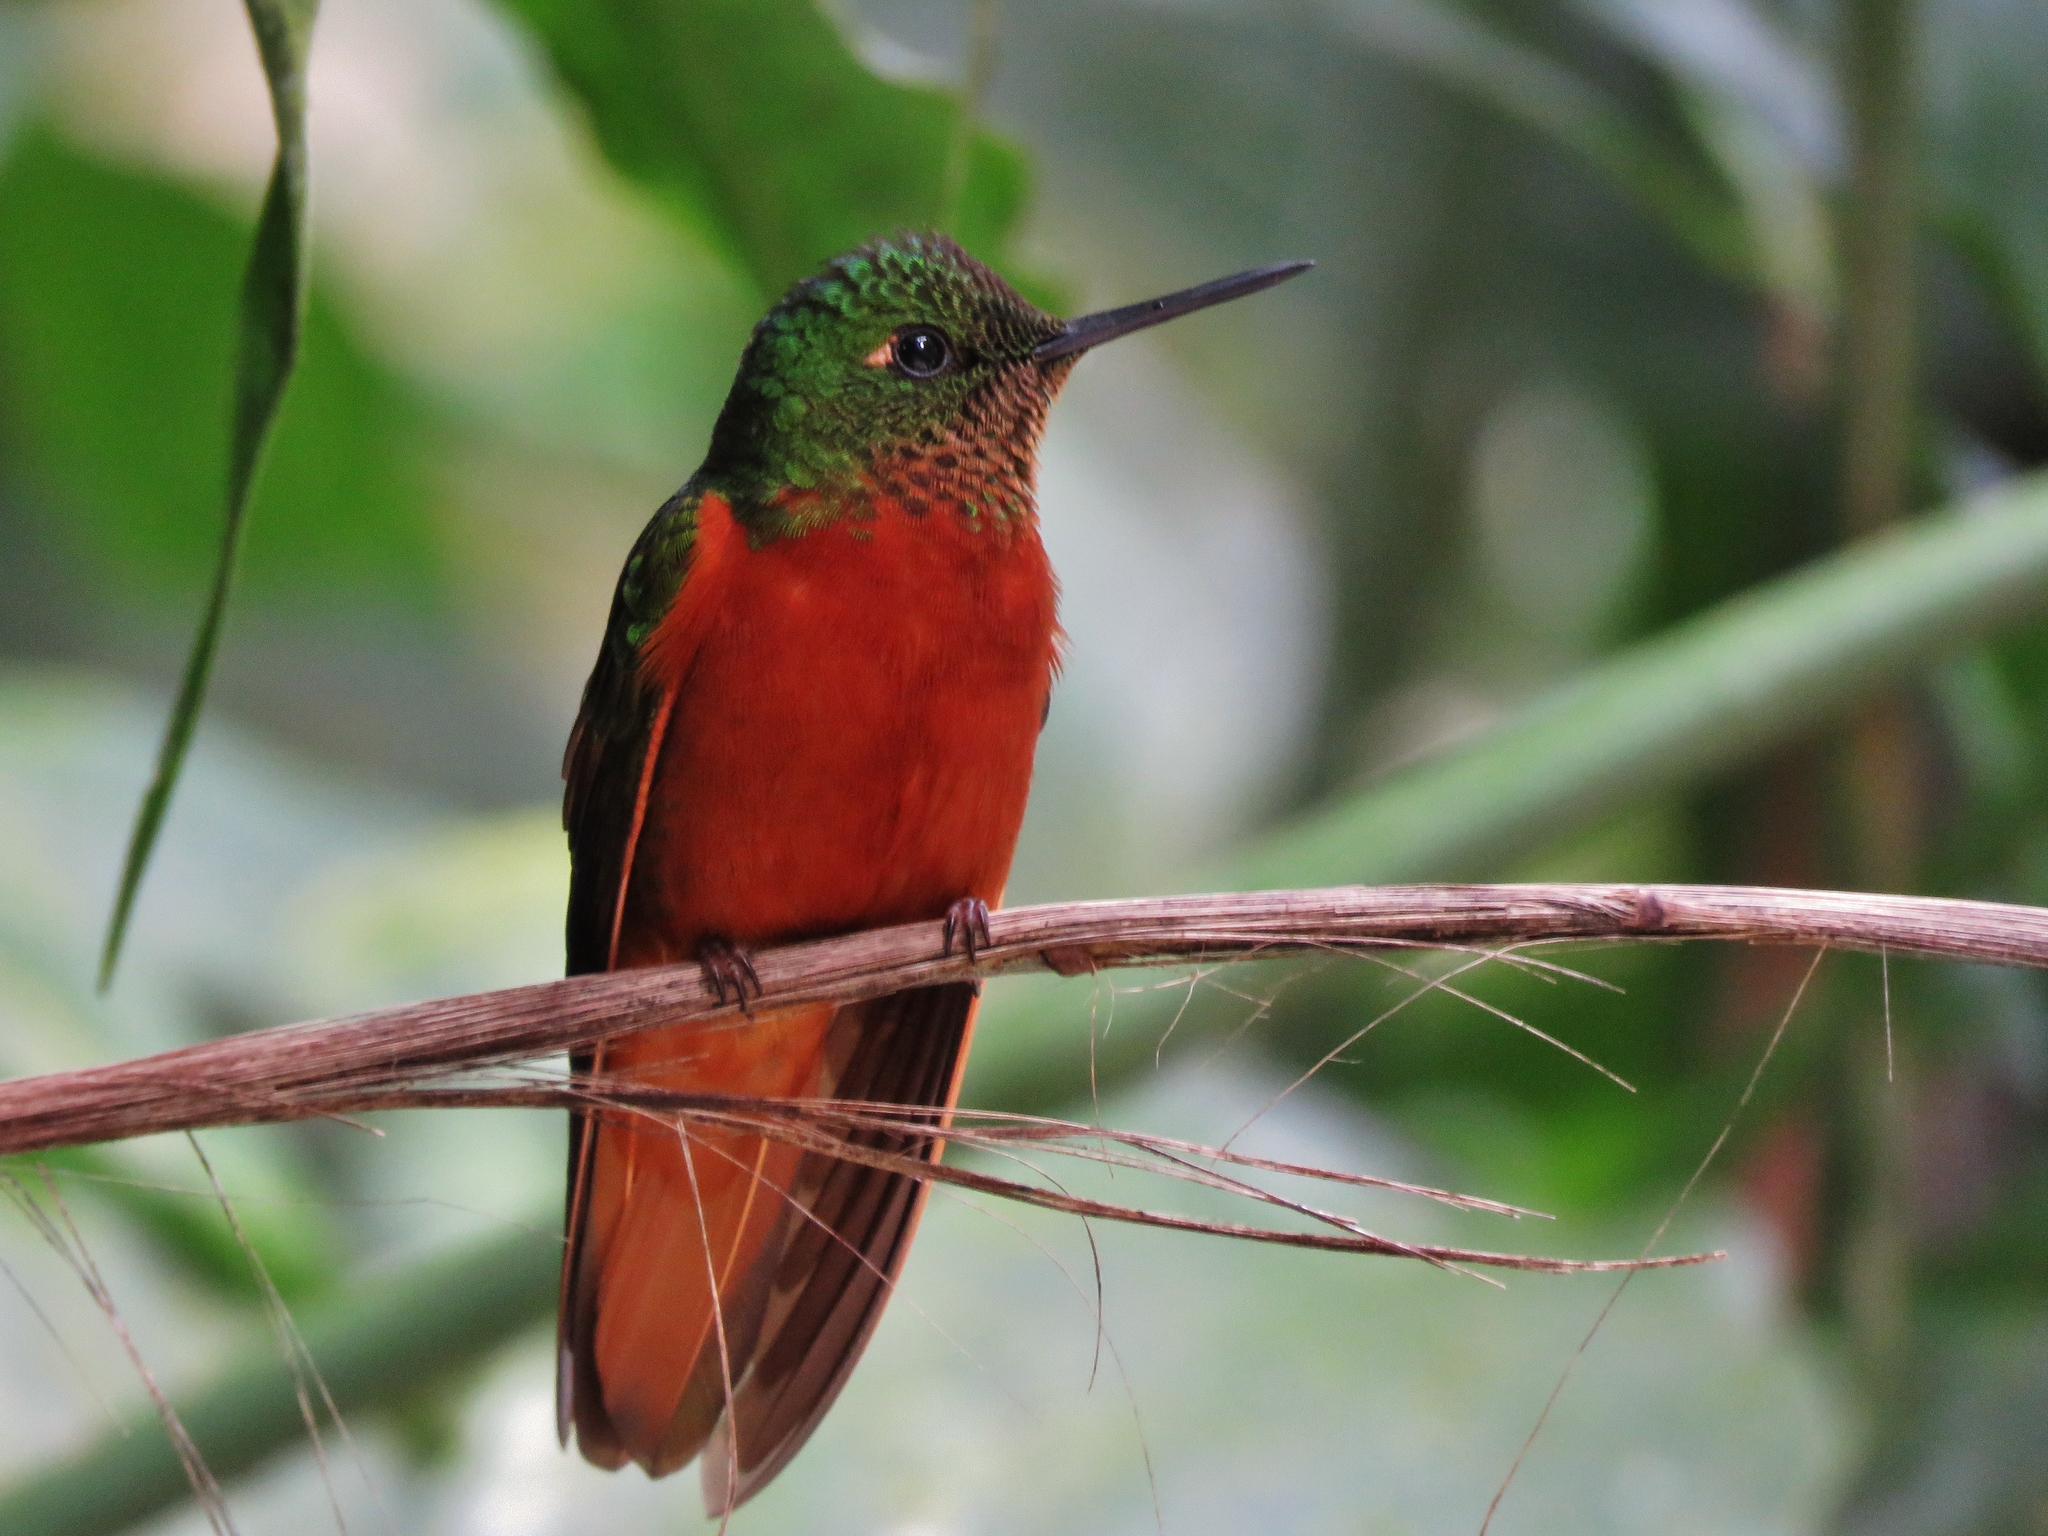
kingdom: Animalia
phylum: Chordata
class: Aves
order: Apodiformes
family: Trochilidae
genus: Boissonneaua
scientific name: Boissonneaua matthewsii
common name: Chestnut-breasted coronet
